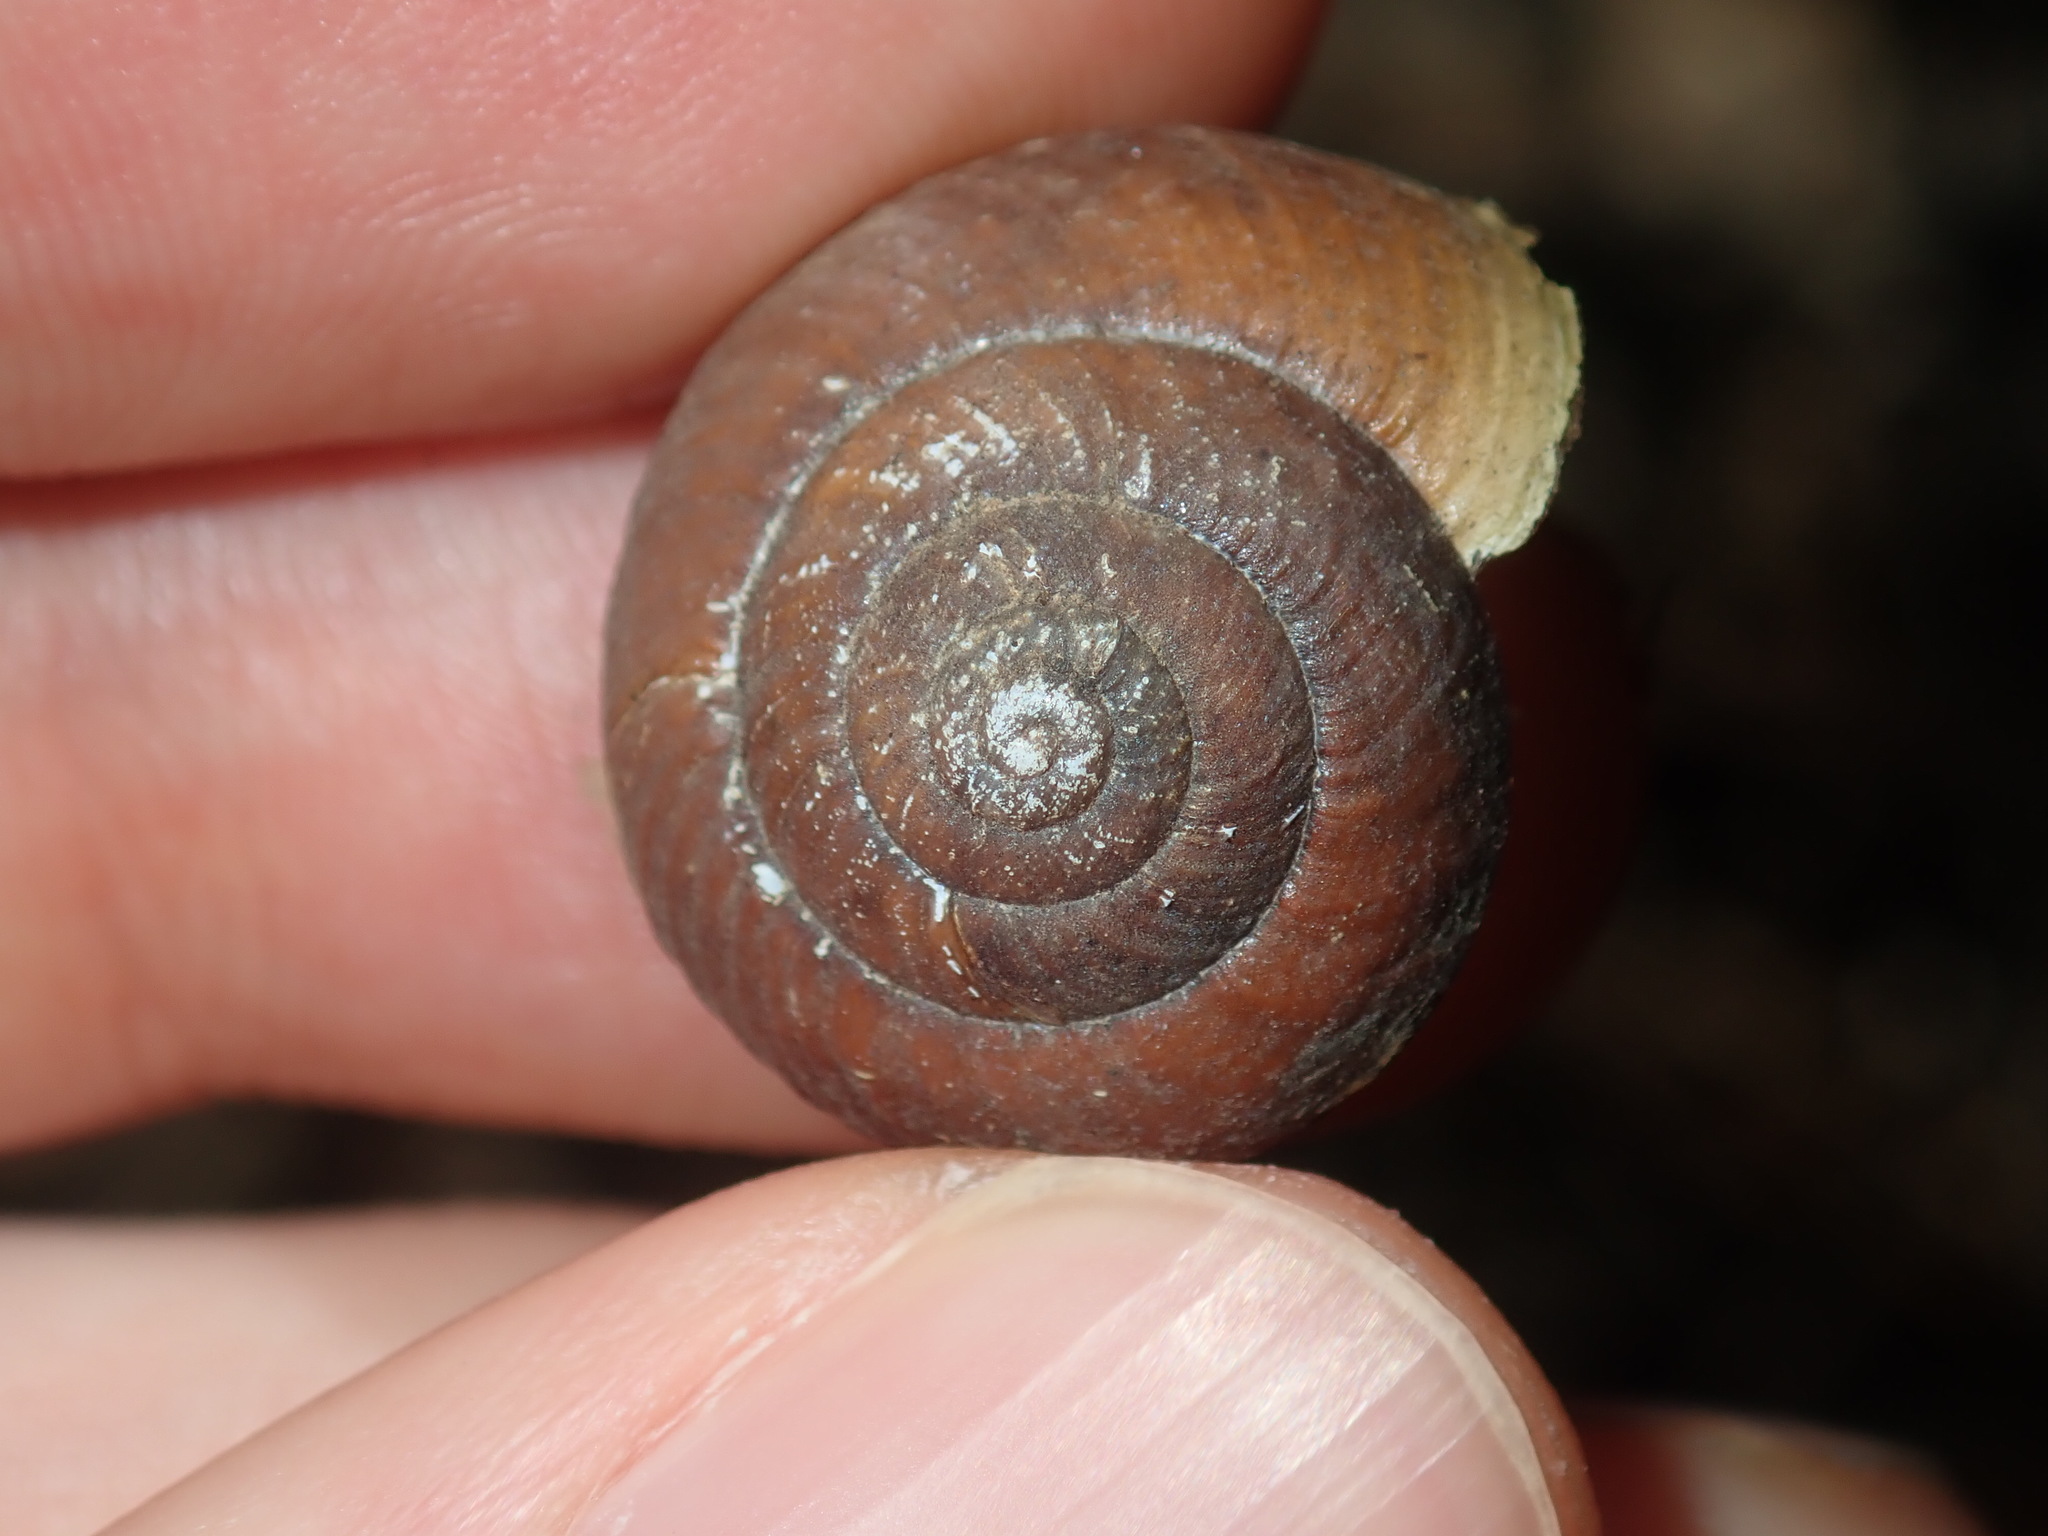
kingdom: Animalia
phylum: Mollusca
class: Gastropoda
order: Stylommatophora
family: Camaenidae
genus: Sauroconcha
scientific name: Sauroconcha sheai
